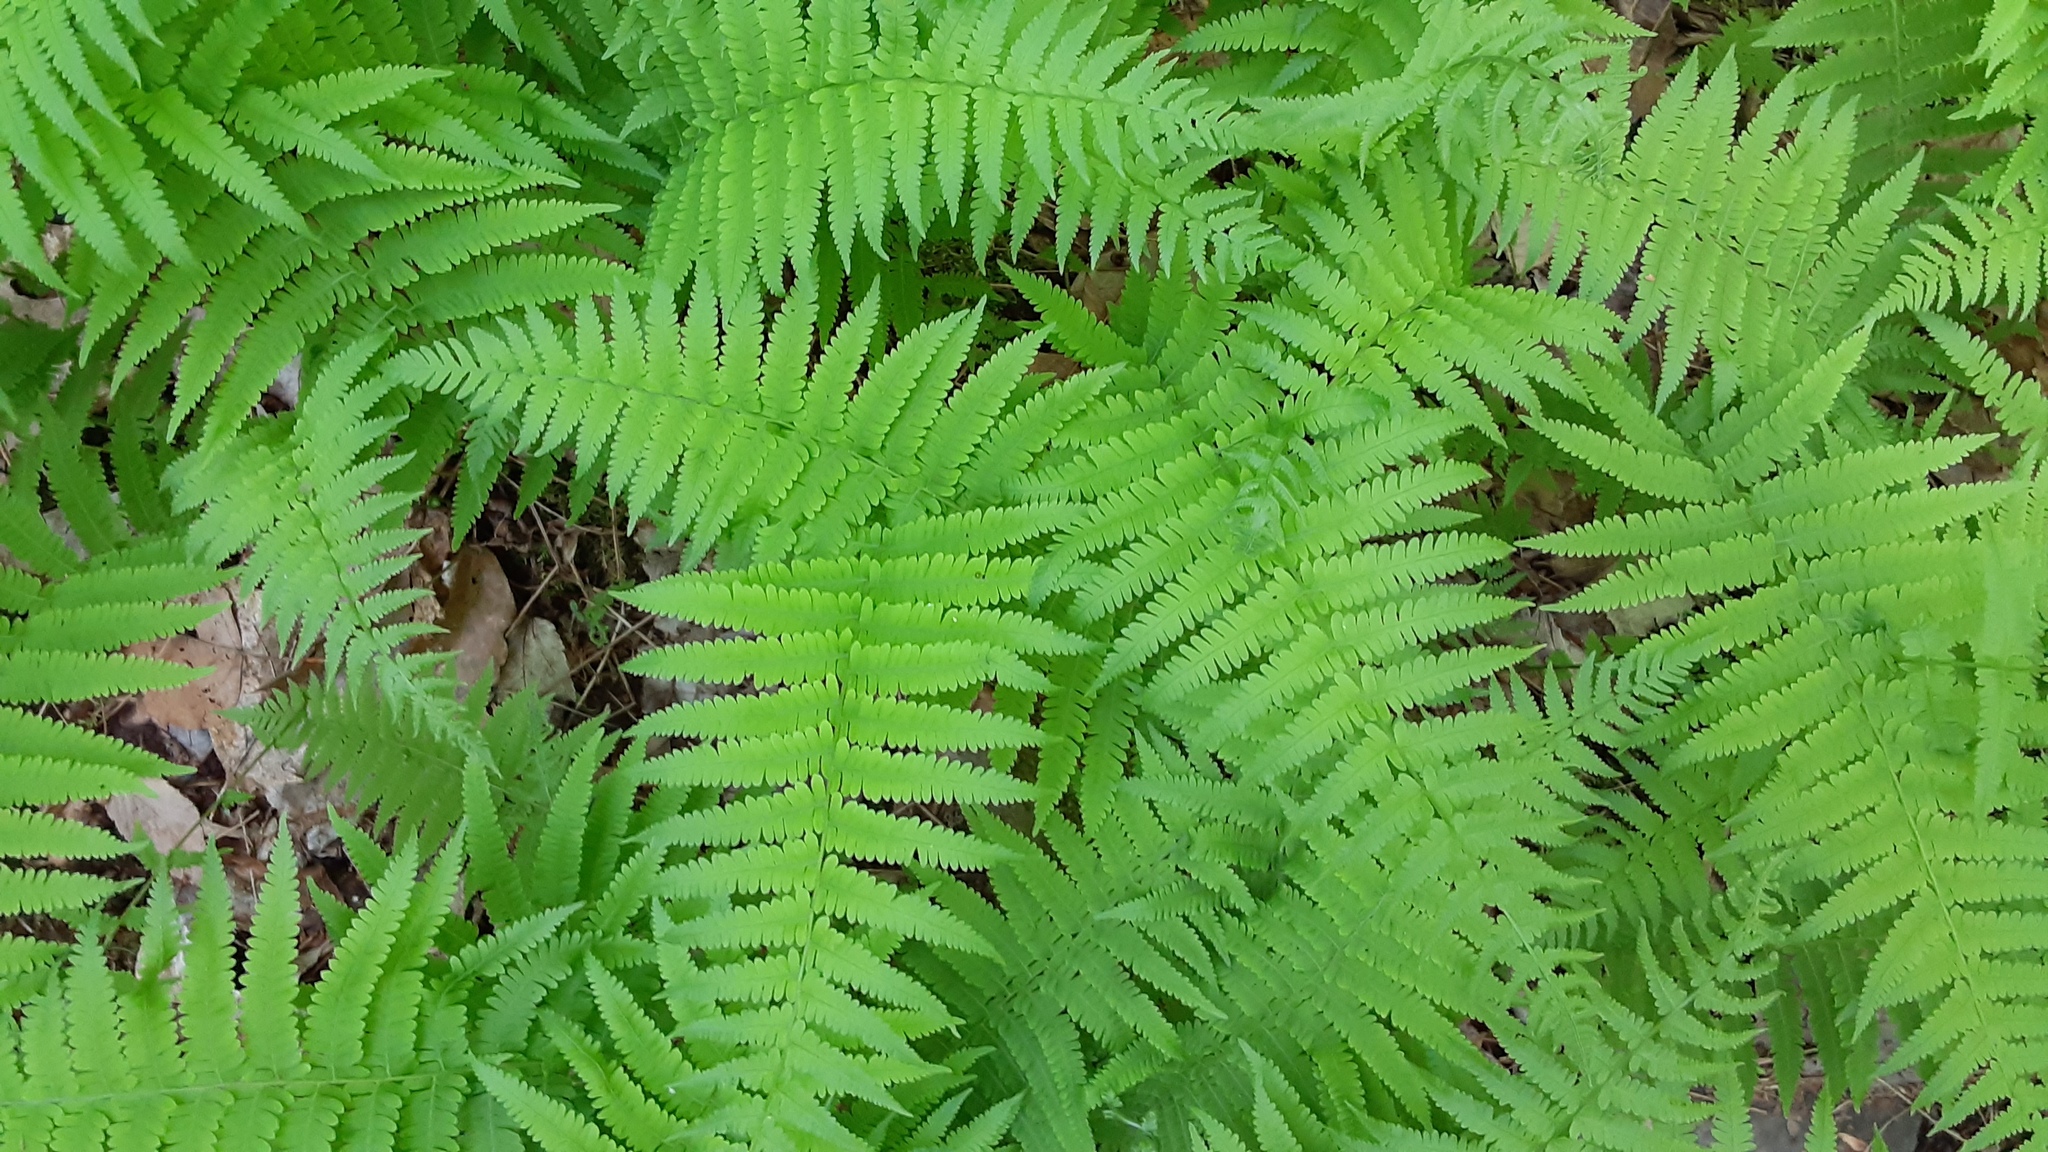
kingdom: Plantae
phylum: Tracheophyta
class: Polypodiopsida
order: Polypodiales
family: Thelypteridaceae
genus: Amauropelta
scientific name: Amauropelta noveboracensis
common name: New york fern
